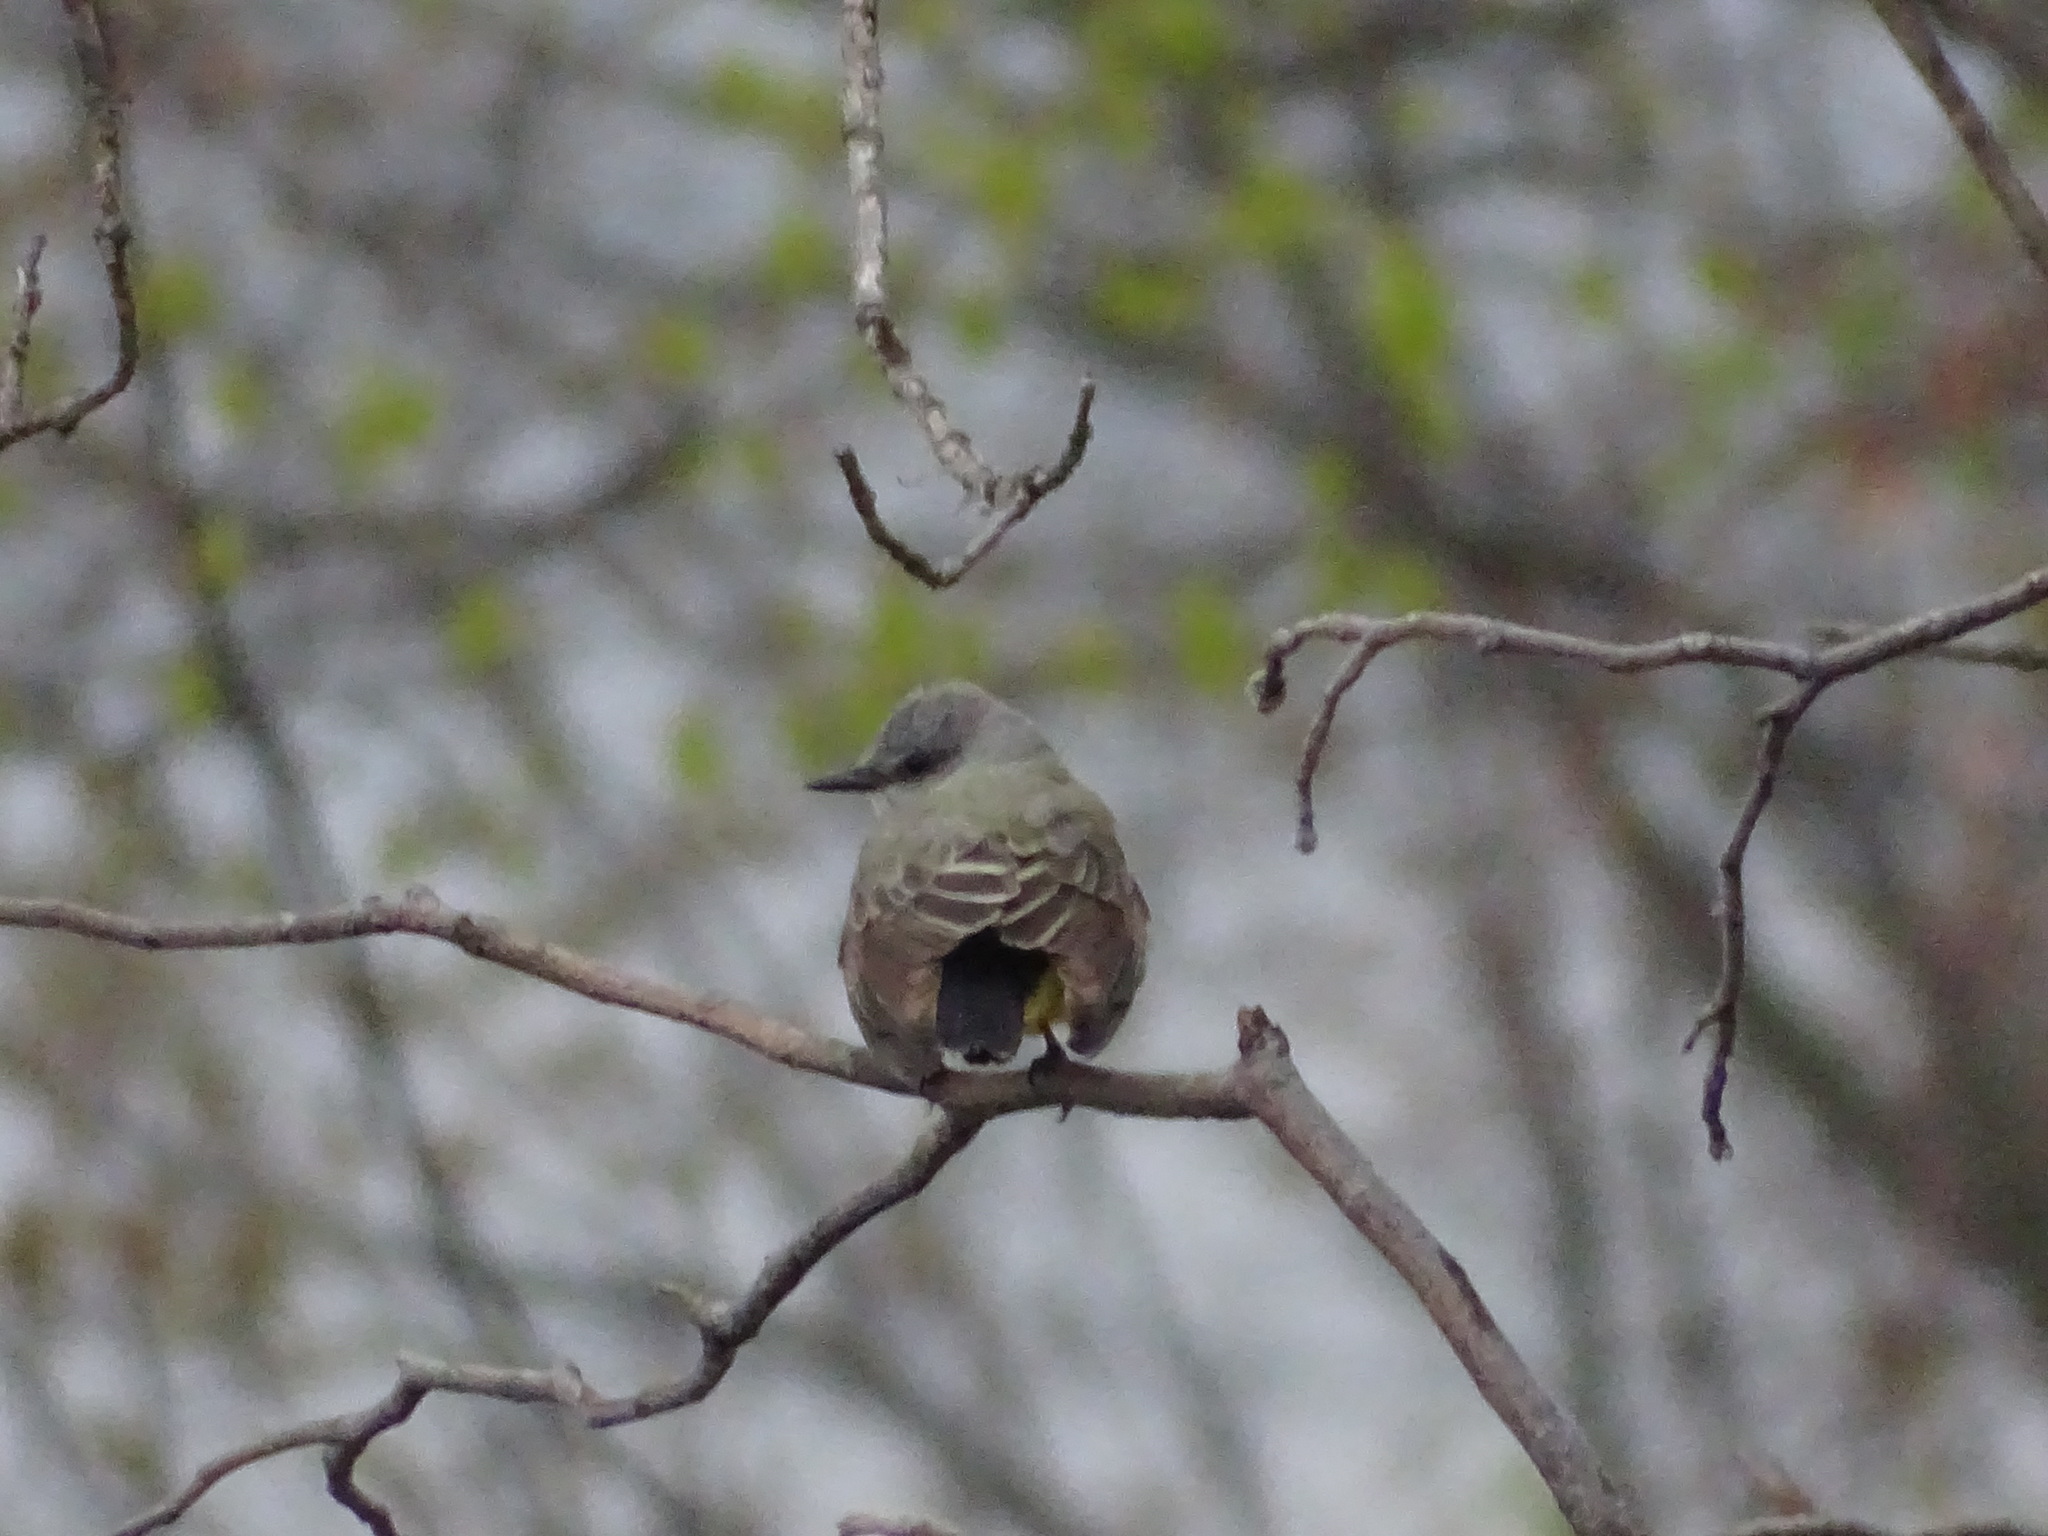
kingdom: Animalia
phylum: Chordata
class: Aves
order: Passeriformes
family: Tyrannidae
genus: Tyrannus
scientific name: Tyrannus verticalis
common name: Western kingbird
